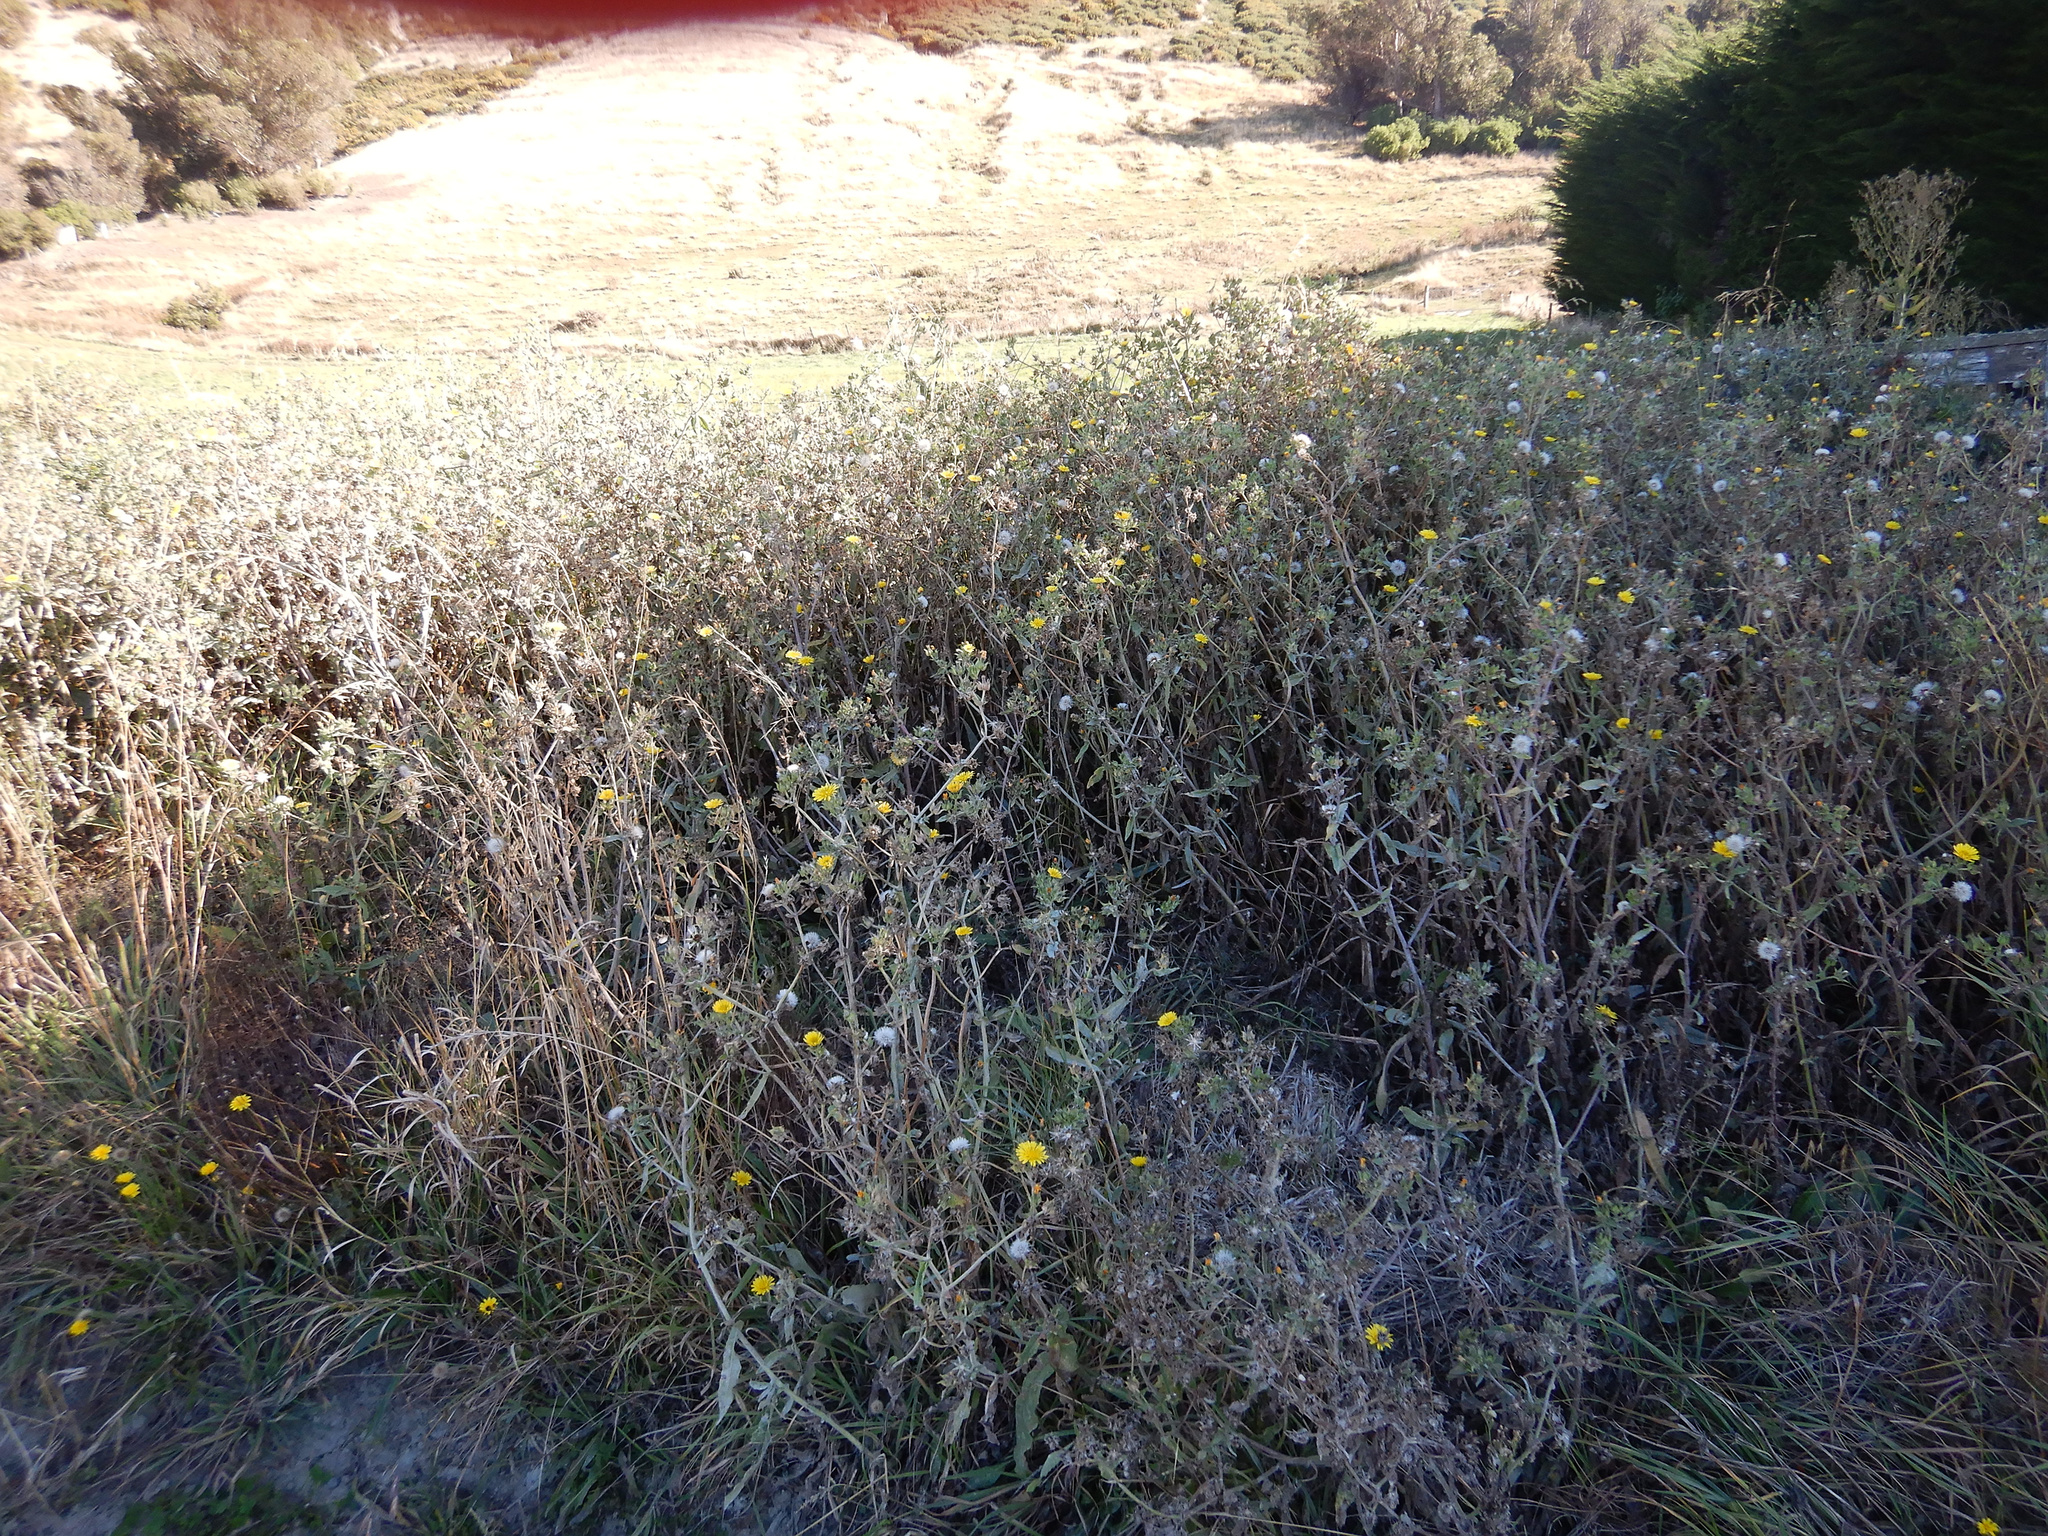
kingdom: Plantae
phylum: Tracheophyta
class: Magnoliopsida
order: Asterales
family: Asteraceae
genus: Helminthotheca
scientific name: Helminthotheca echioides
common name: Ox-tongue
